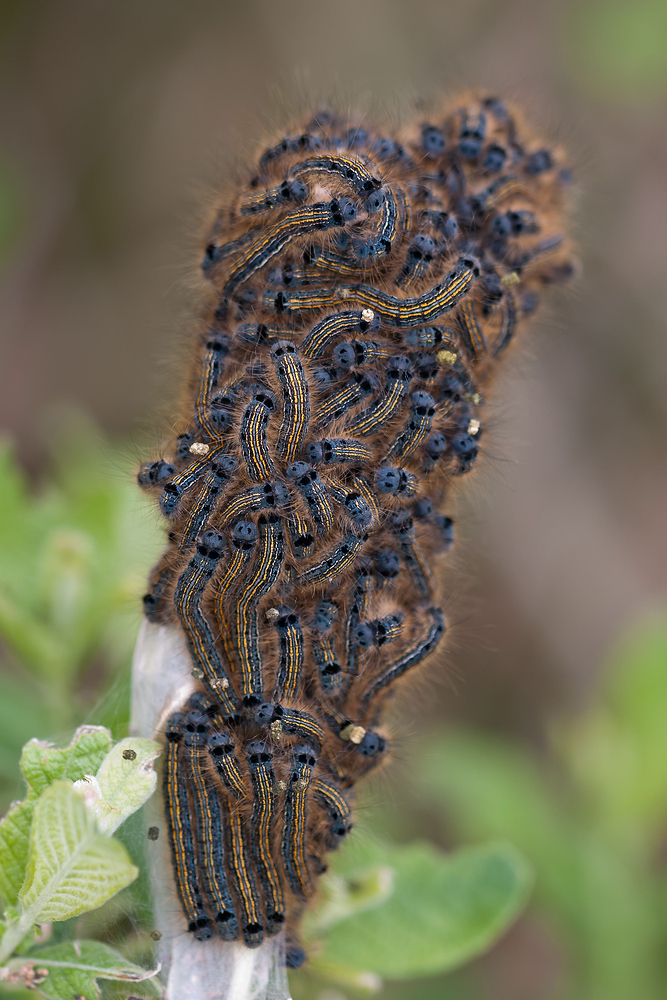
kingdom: Animalia
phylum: Arthropoda
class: Insecta
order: Lepidoptera
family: Lasiocampidae
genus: Malacosoma
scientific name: Malacosoma neustria
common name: The lackey
